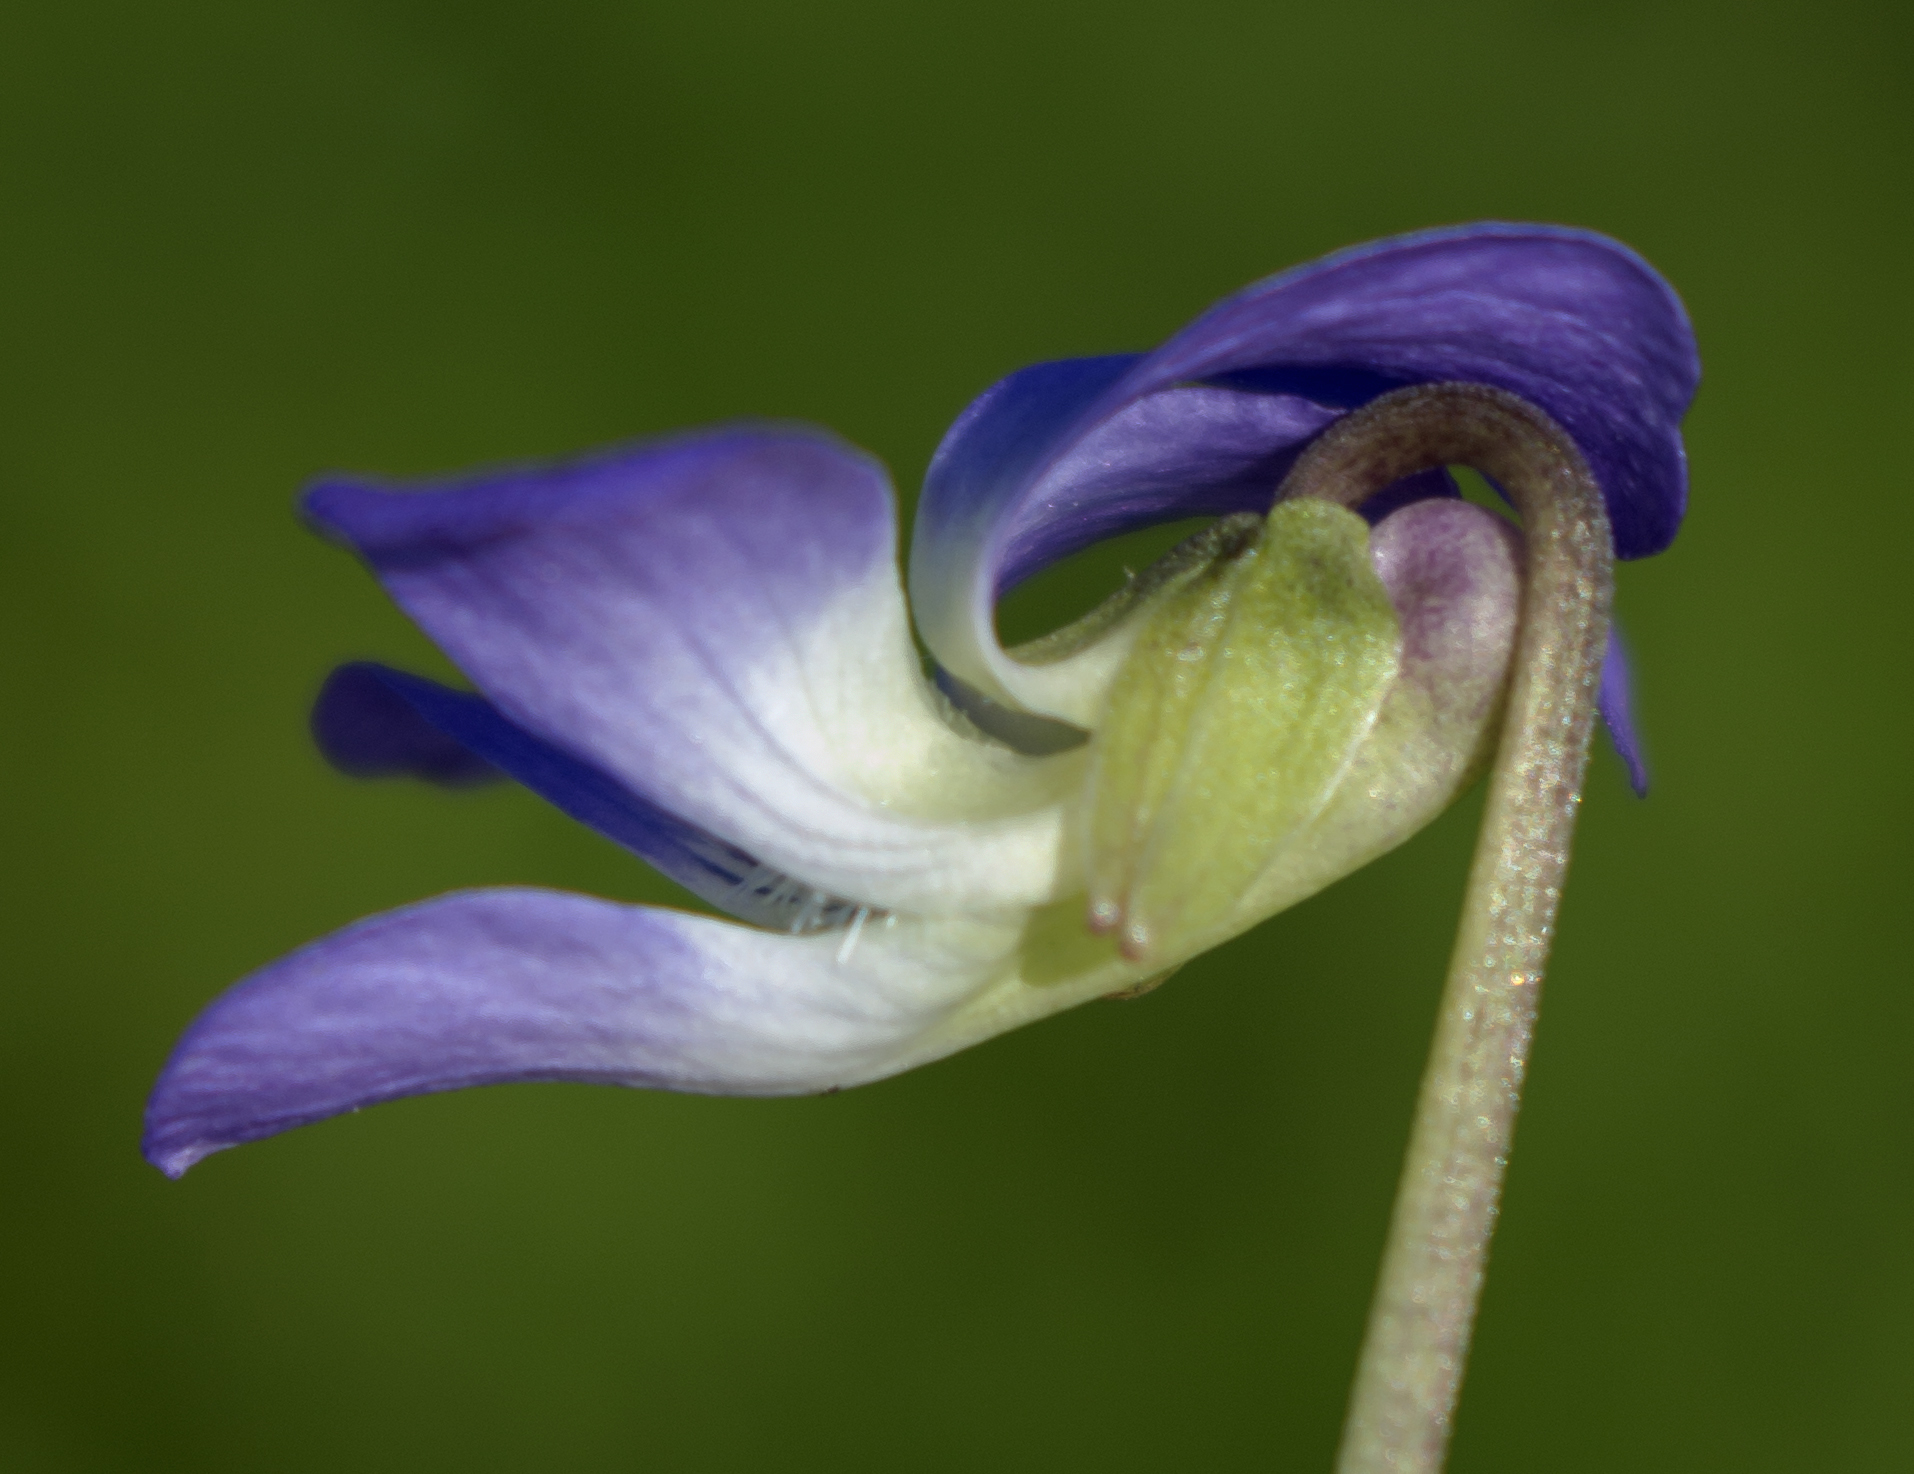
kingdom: Plantae
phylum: Tracheophyta
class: Magnoliopsida
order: Malpighiales
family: Violaceae
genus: Viola
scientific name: Viola cucullata
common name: Marsh blue violet
